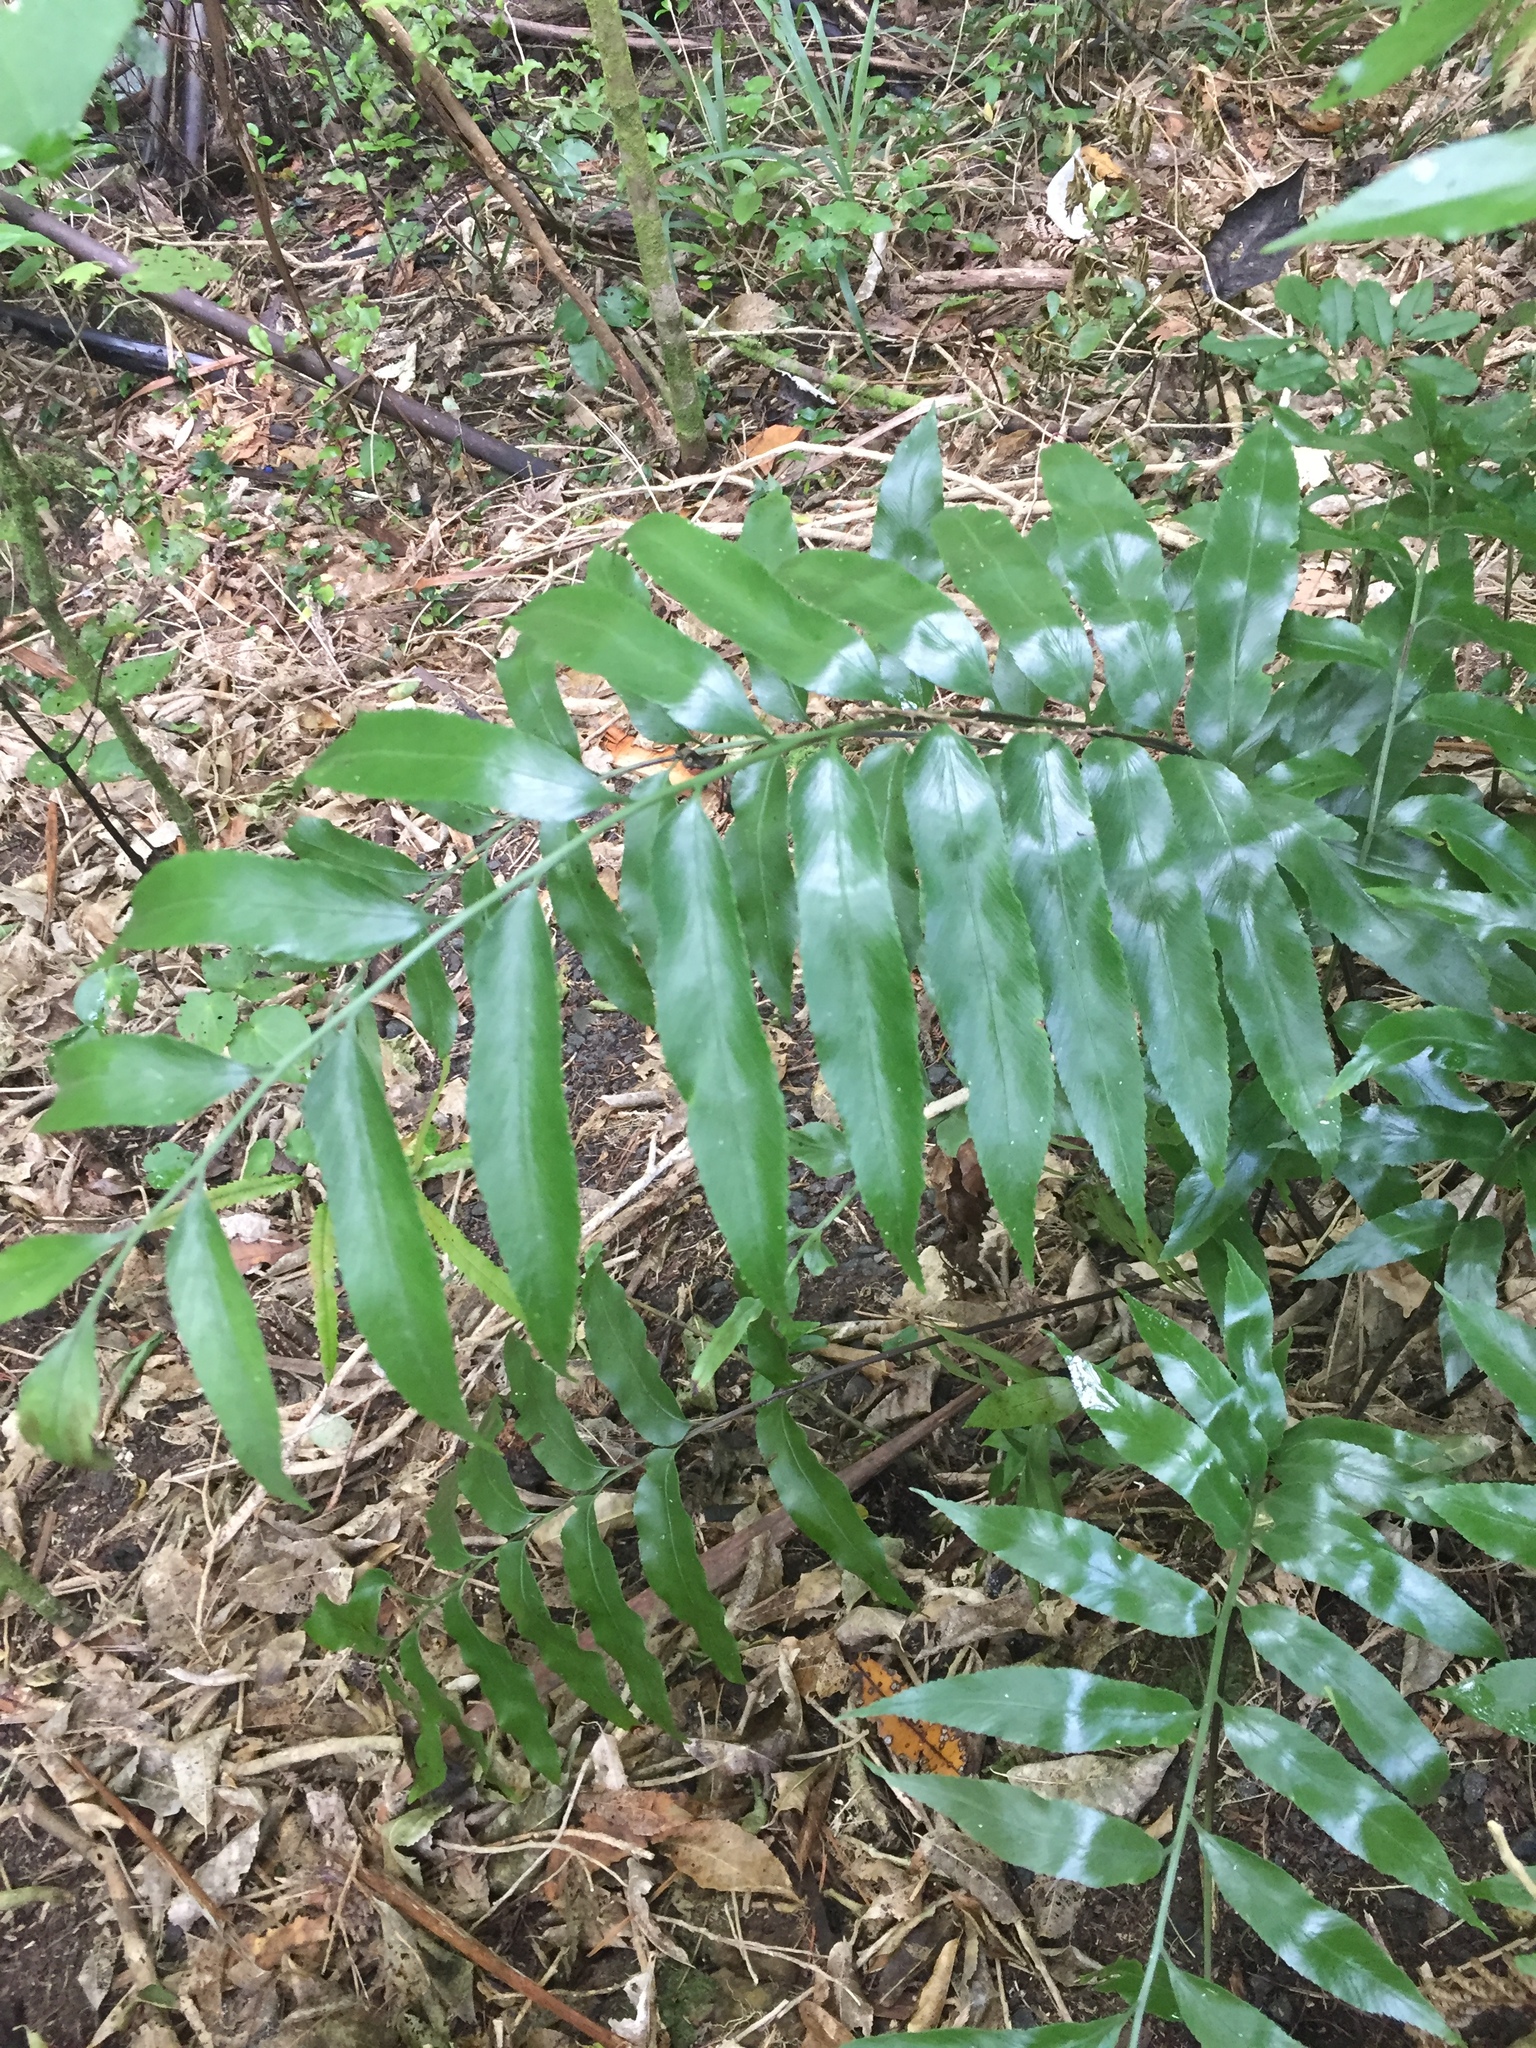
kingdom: Plantae
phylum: Tracheophyta
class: Polypodiopsida
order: Polypodiales
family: Aspleniaceae
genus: Asplenium
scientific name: Asplenium oblongifolium
